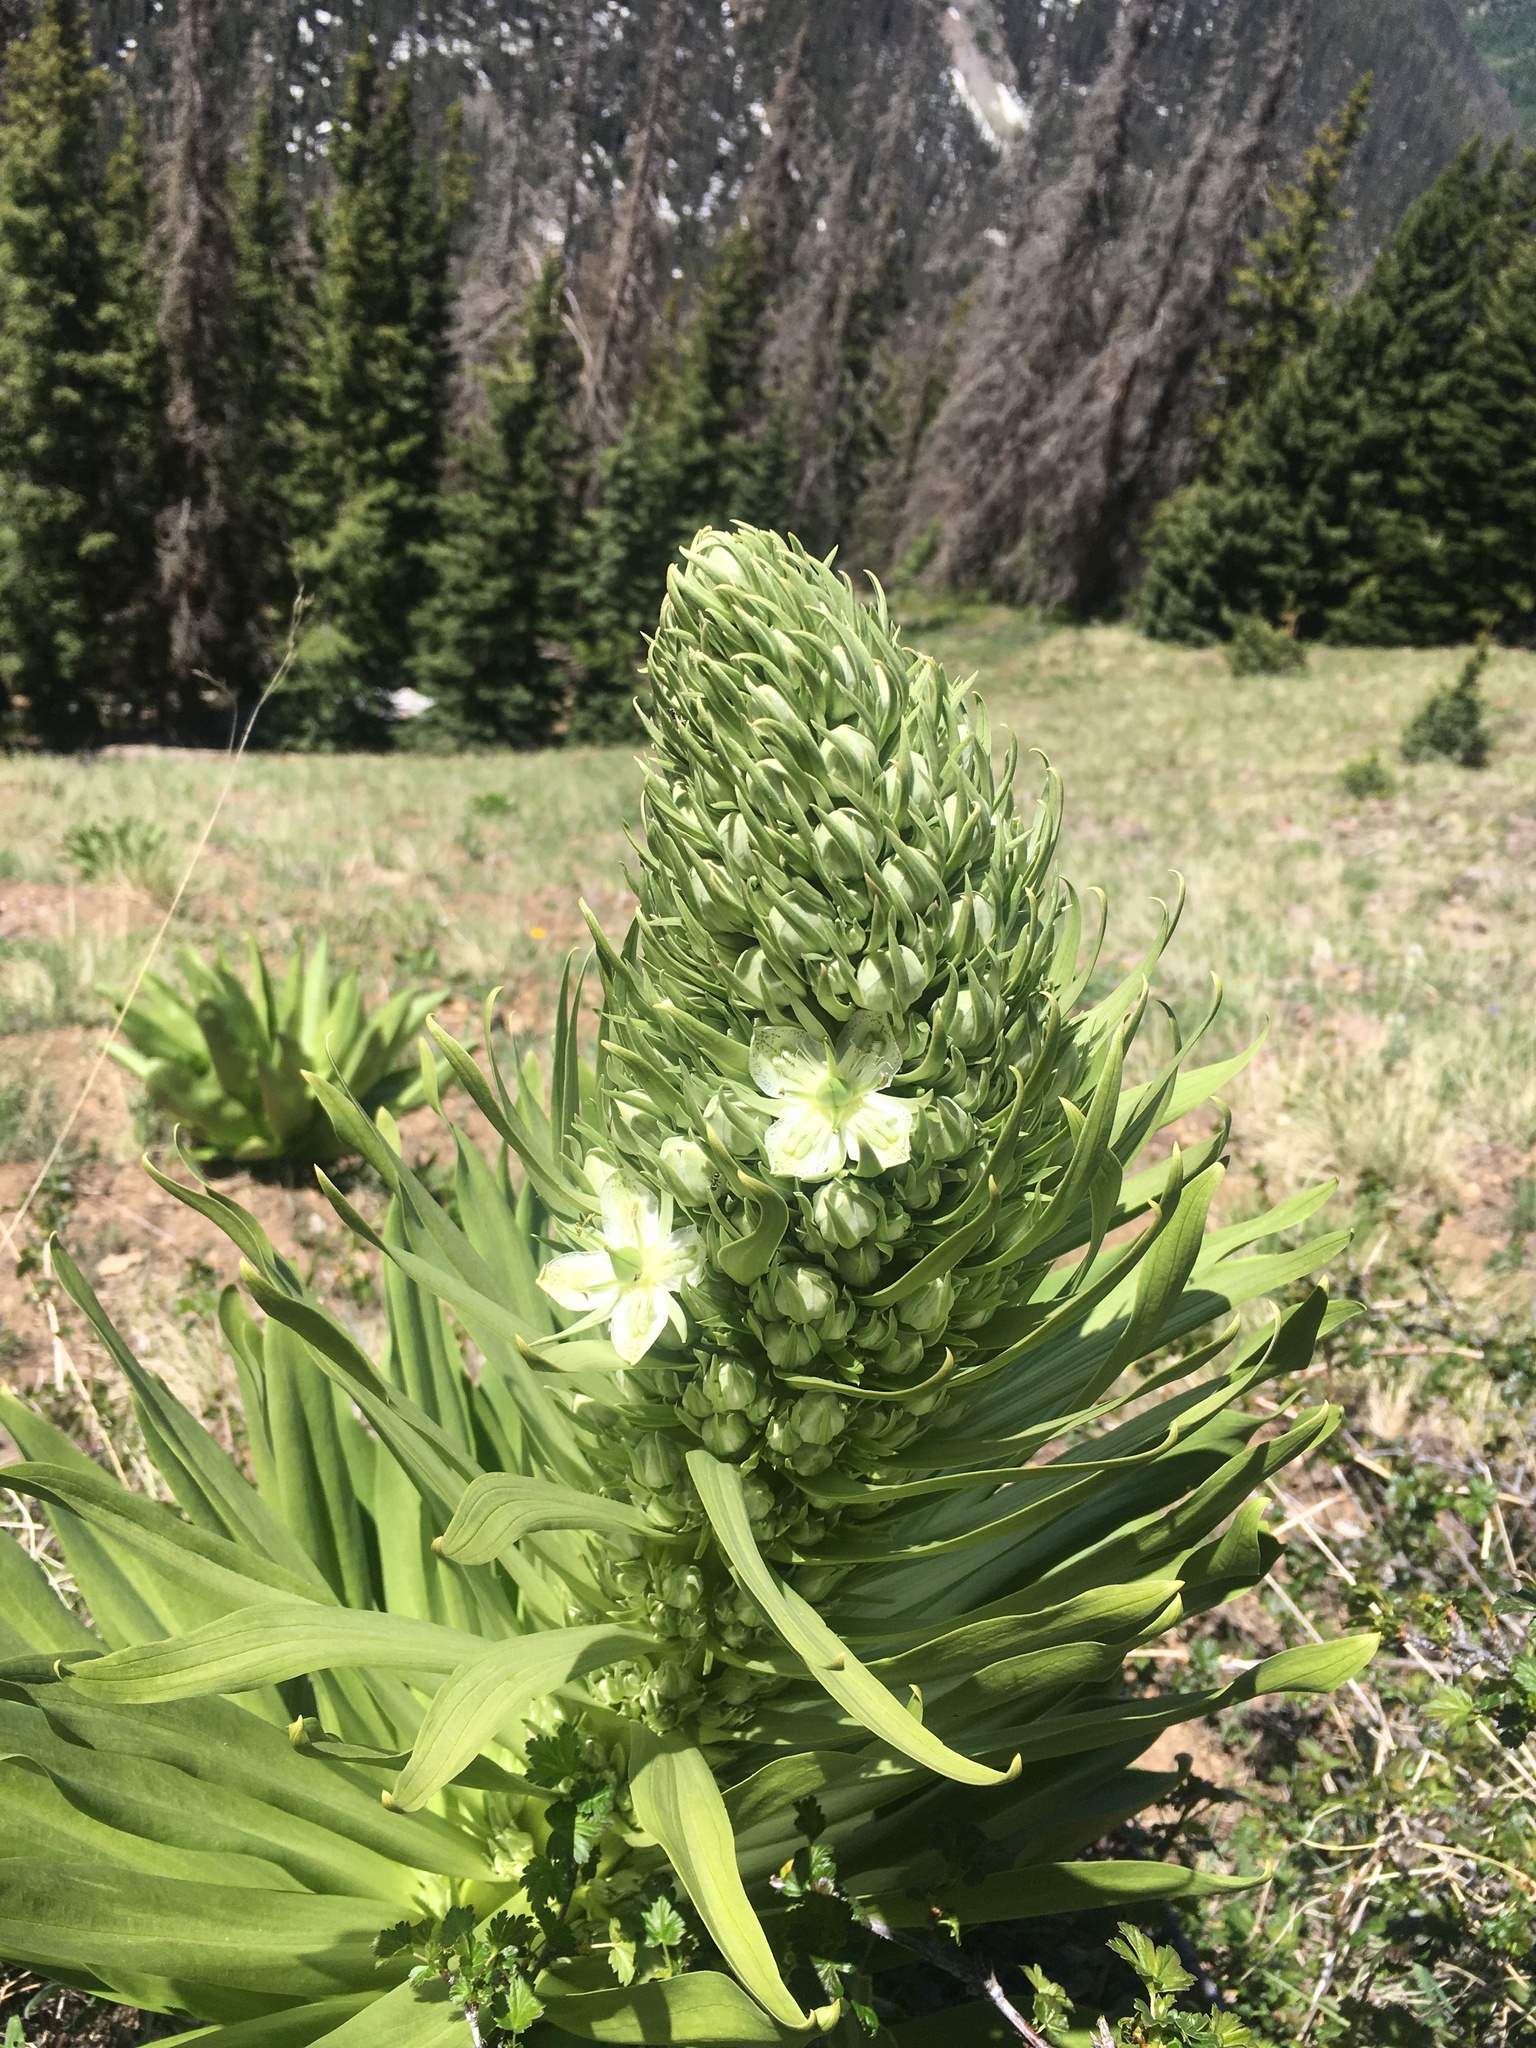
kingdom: Plantae
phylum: Tracheophyta
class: Magnoliopsida
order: Gentianales
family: Gentianaceae
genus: Frasera
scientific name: Frasera speciosa
